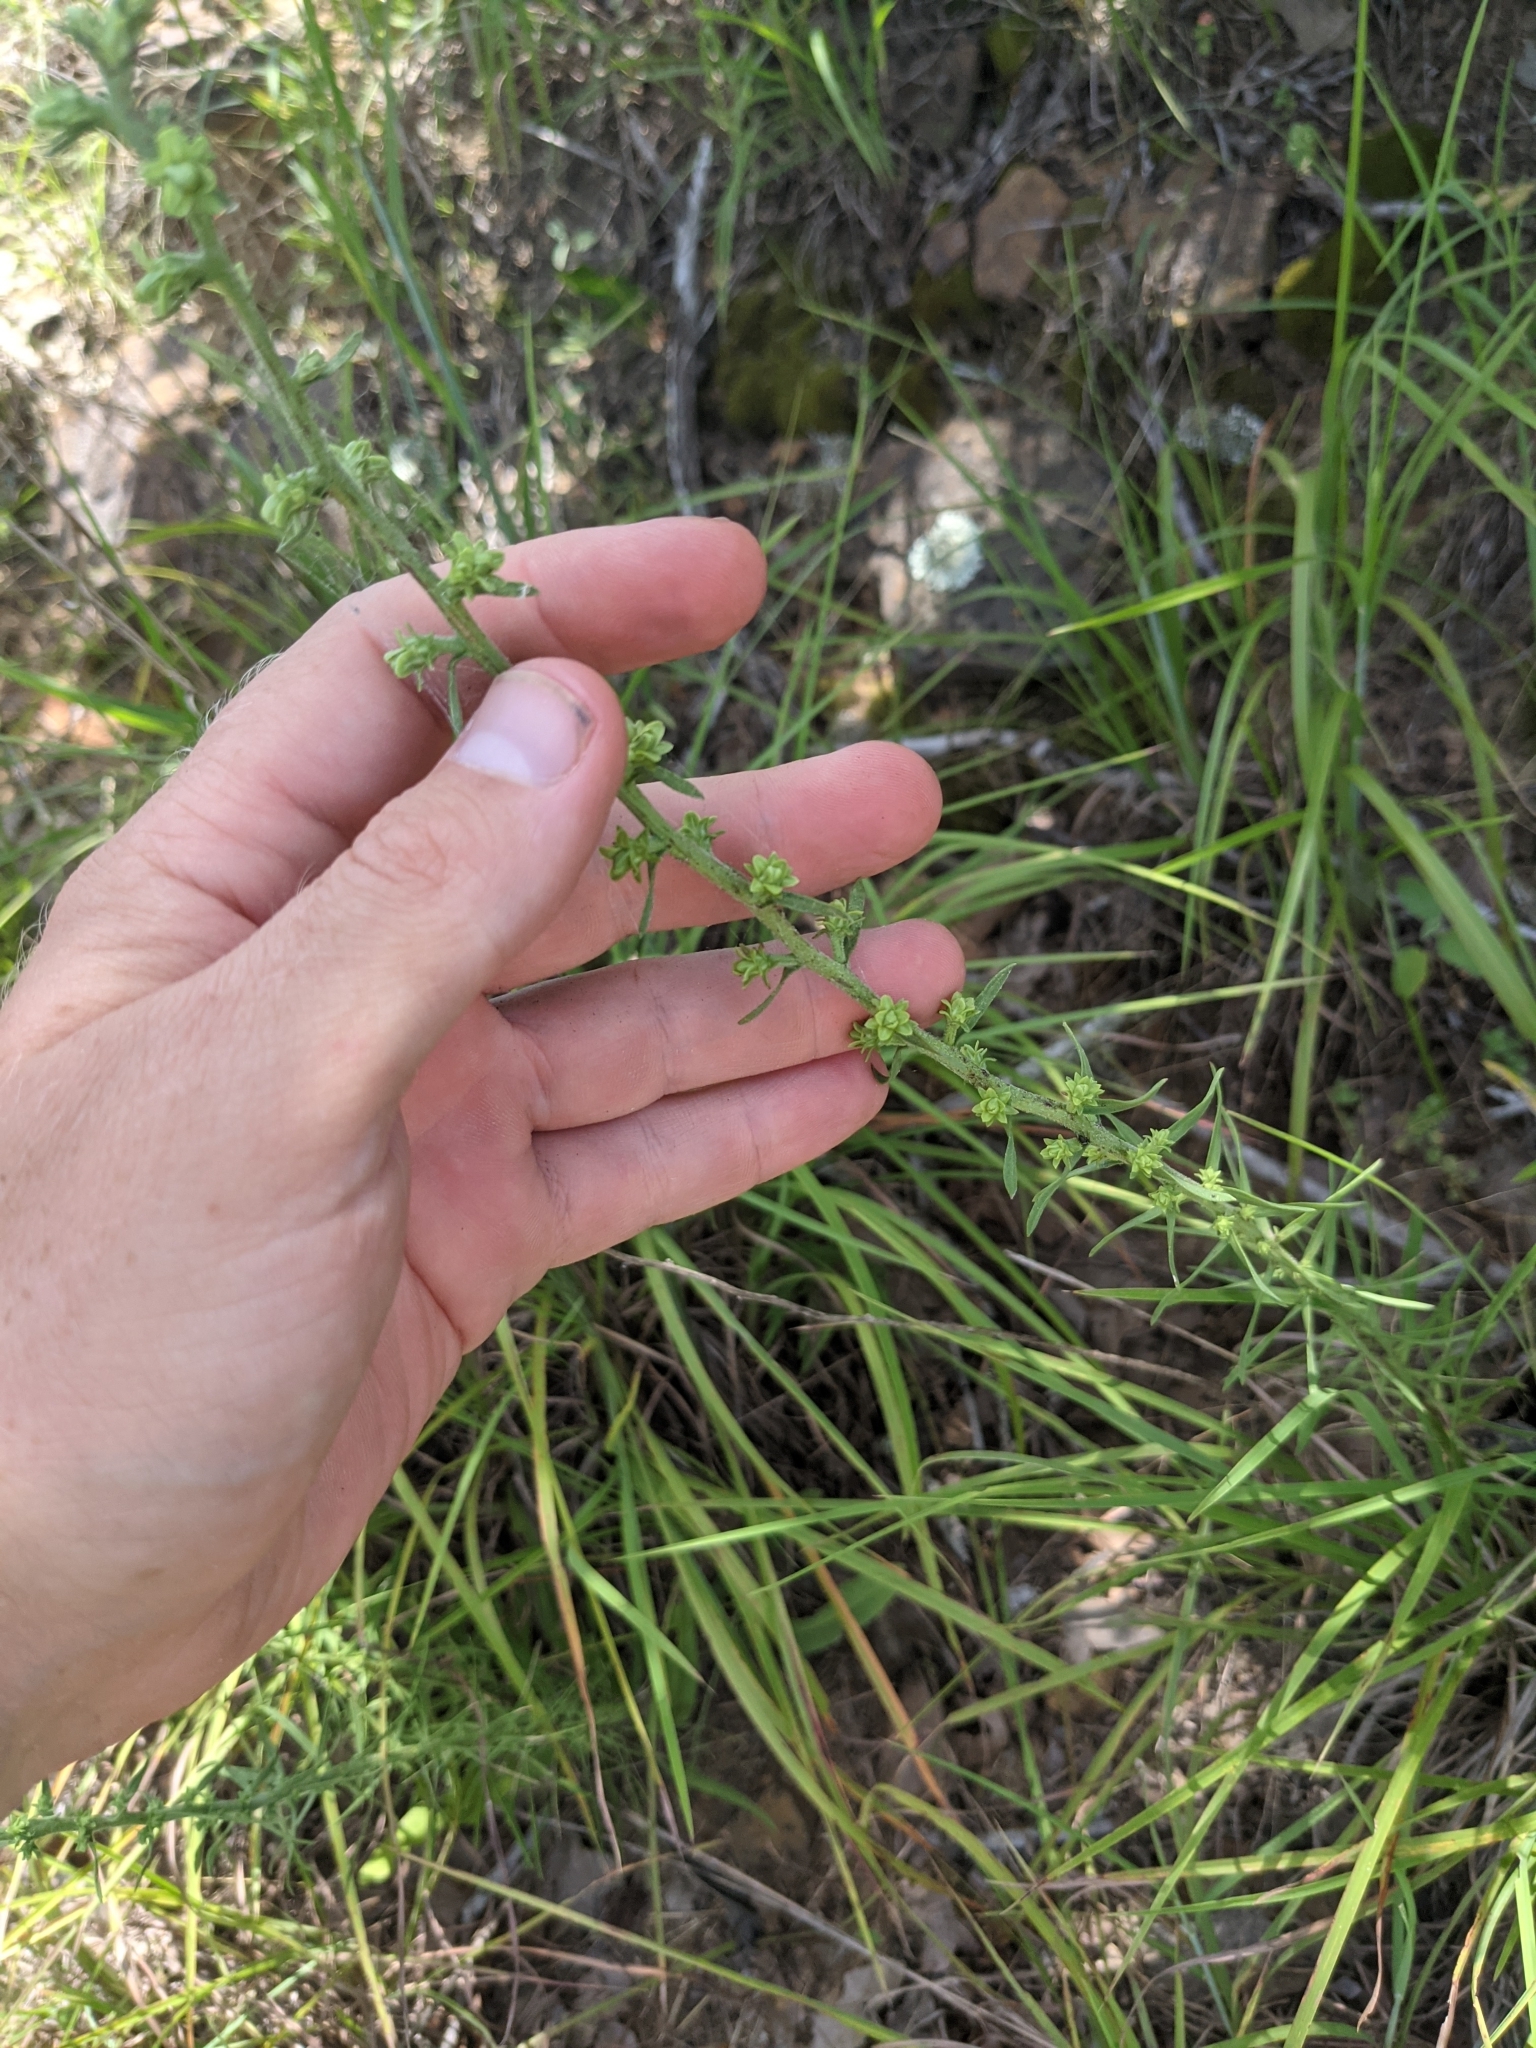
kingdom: Plantae
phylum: Tracheophyta
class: Magnoliopsida
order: Asterales
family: Asteraceae
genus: Liatris
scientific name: Liatris aspera
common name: Lacerate blazing-star
